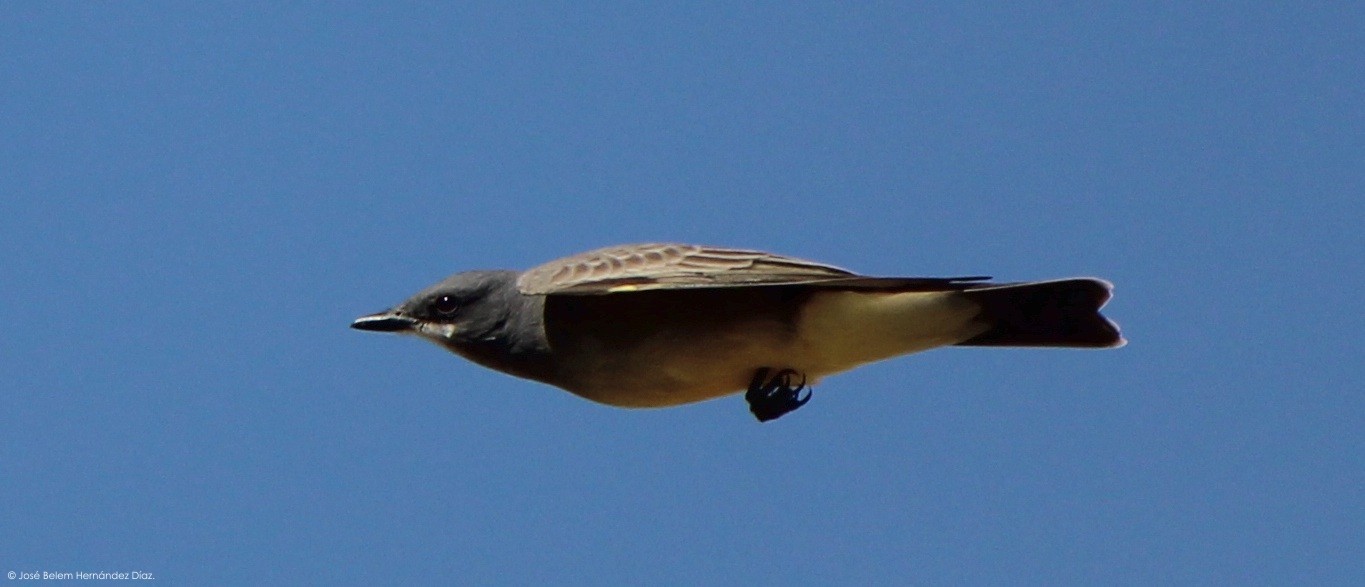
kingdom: Animalia
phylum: Chordata
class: Aves
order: Passeriformes
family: Tyrannidae
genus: Tyrannus
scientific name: Tyrannus vociferans
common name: Cassin's kingbird
